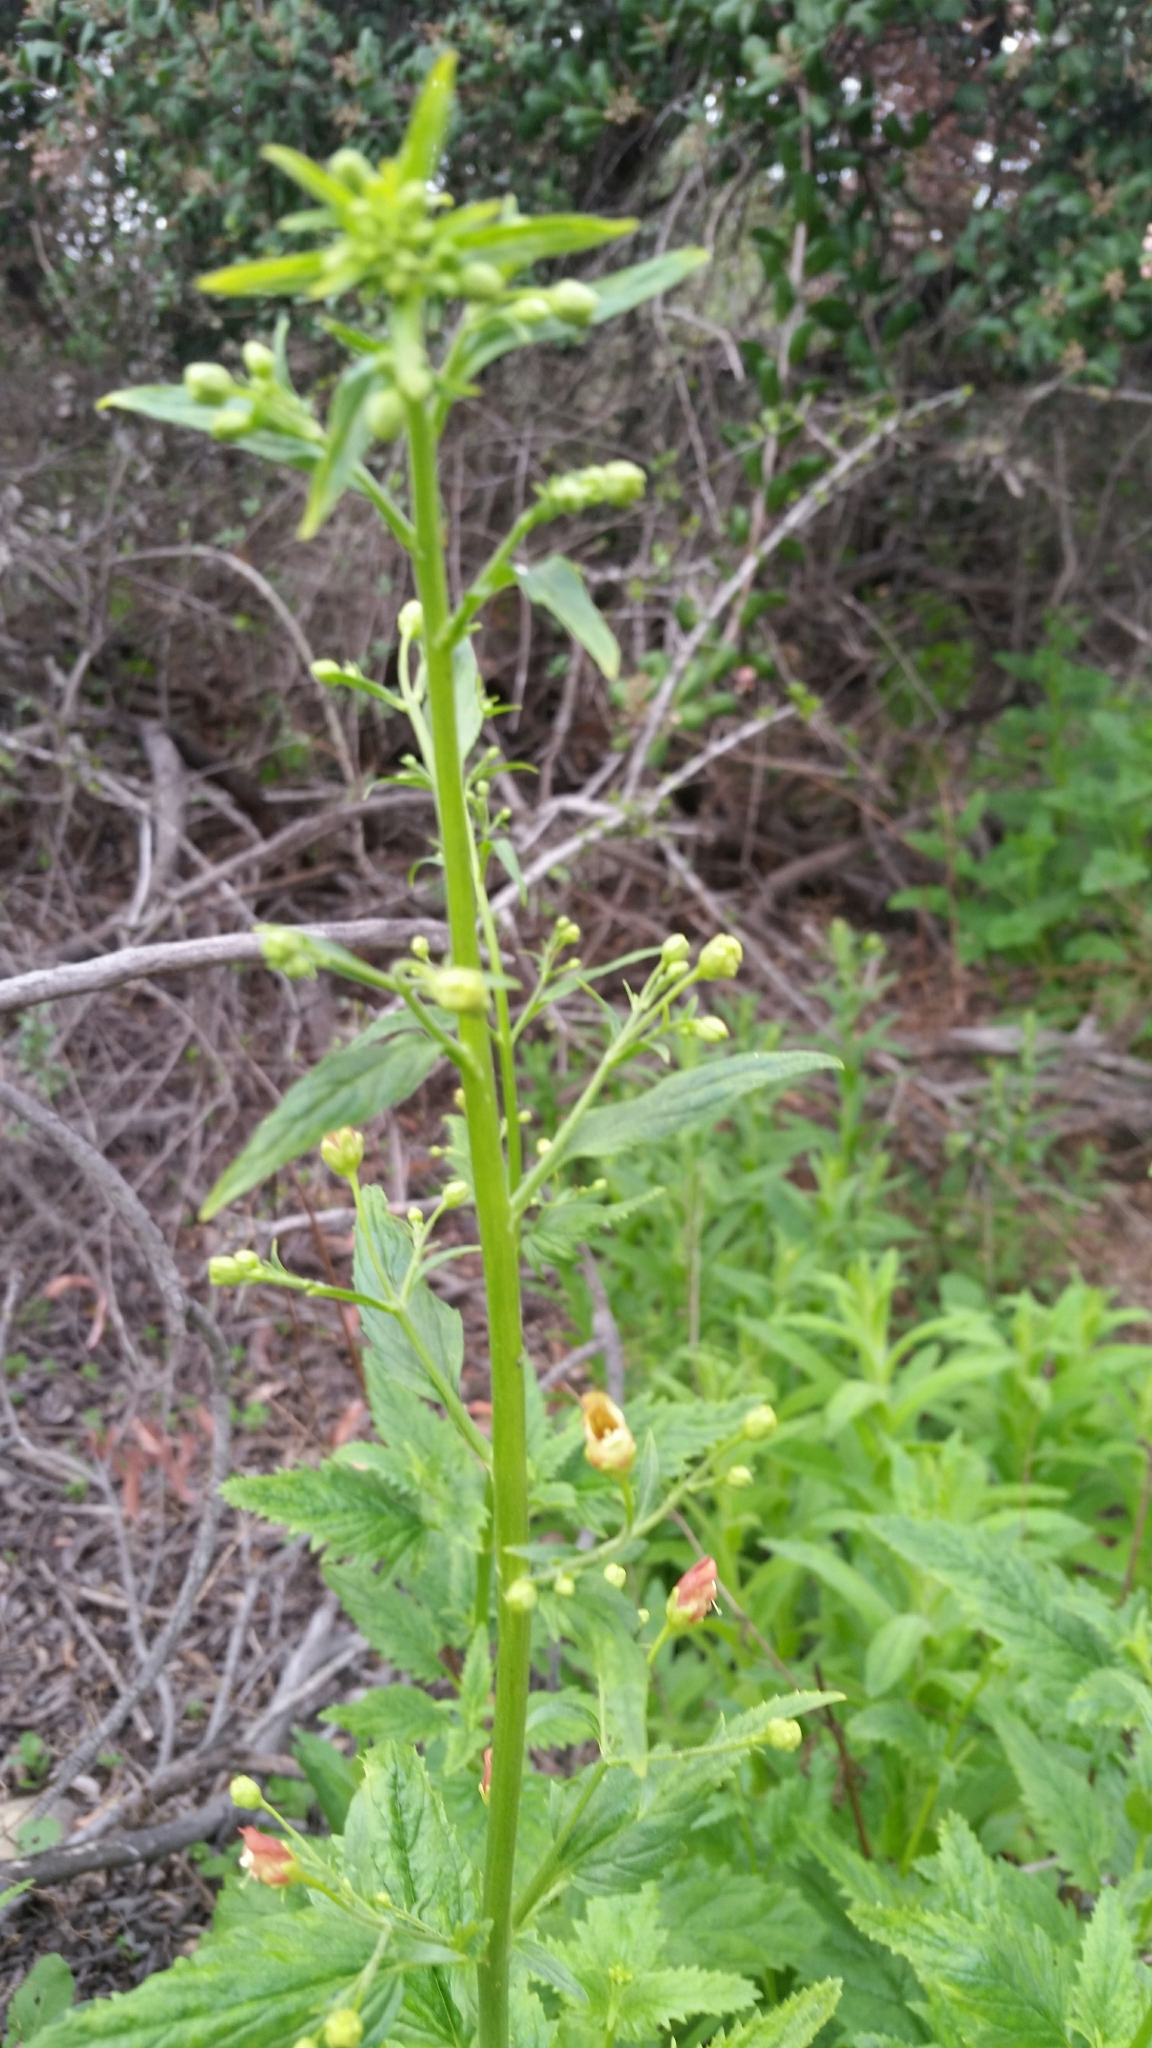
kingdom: Plantae
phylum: Tracheophyta
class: Magnoliopsida
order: Lamiales
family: Scrophulariaceae
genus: Scrophularia
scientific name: Scrophularia californica
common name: California figwort
